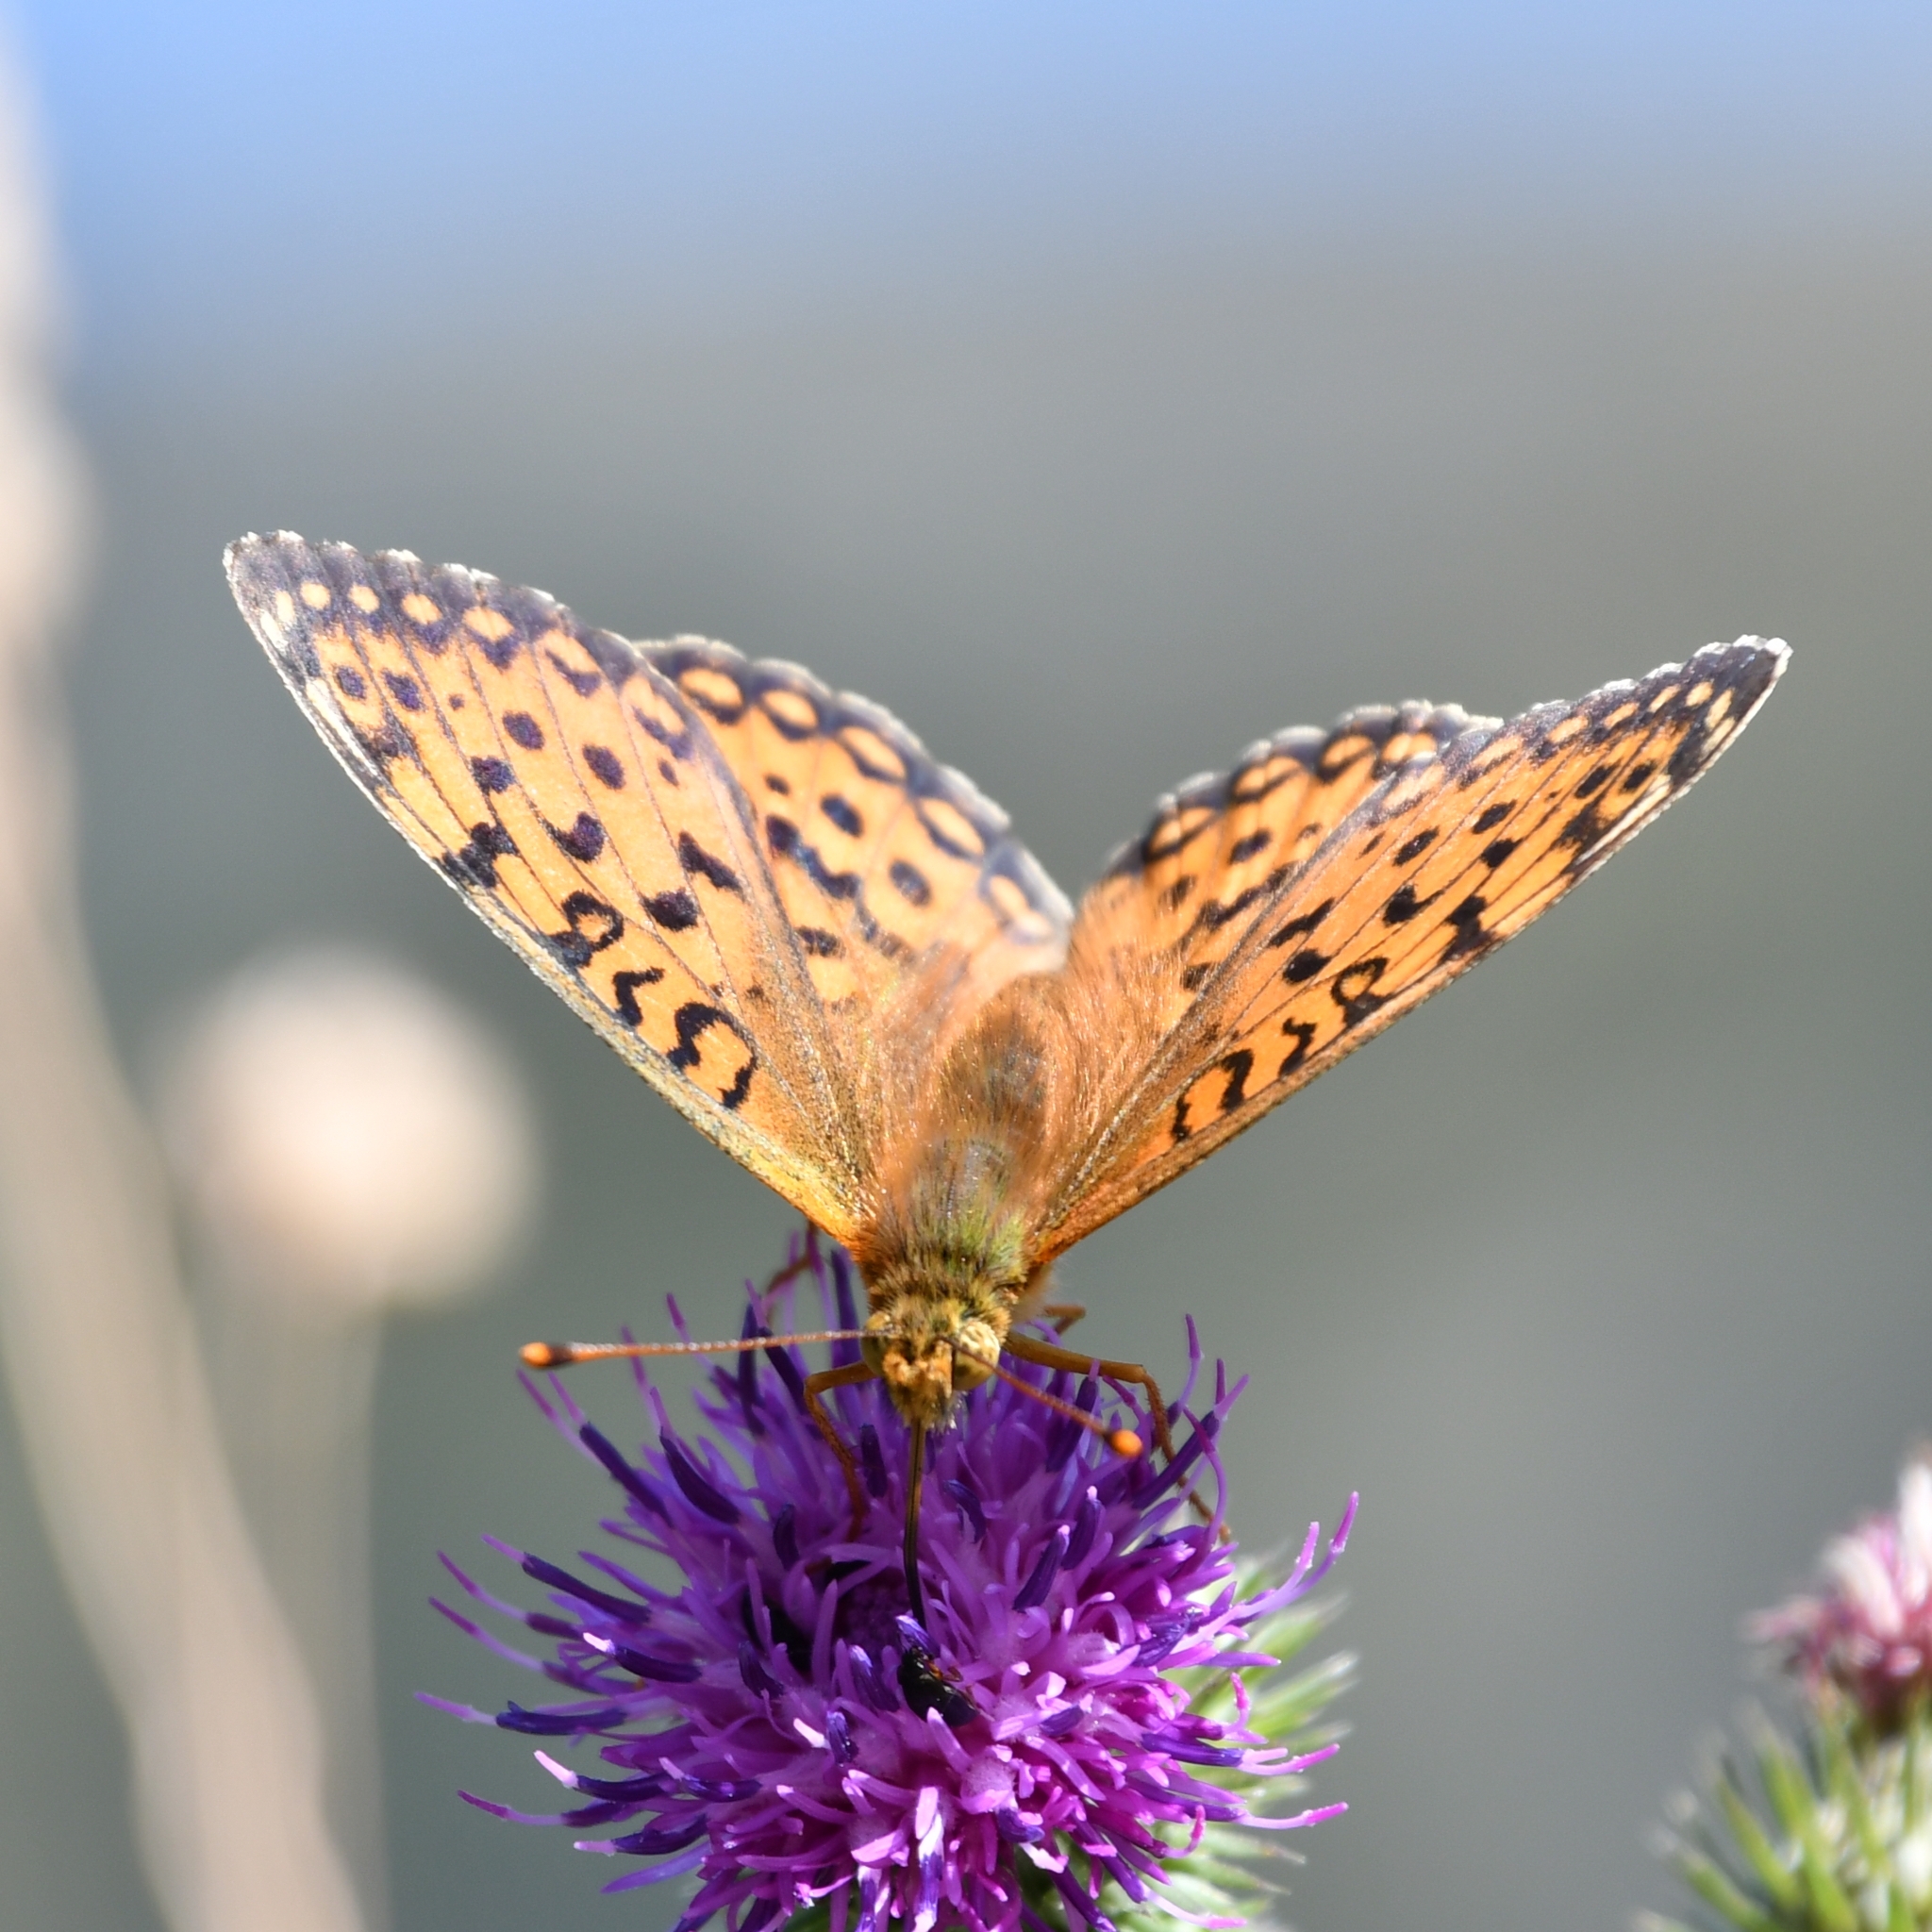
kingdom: Animalia
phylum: Arthropoda
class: Insecta
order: Lepidoptera
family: Nymphalidae
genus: Speyeria
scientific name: Speyeria aglaja
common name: Dark green fritillary
